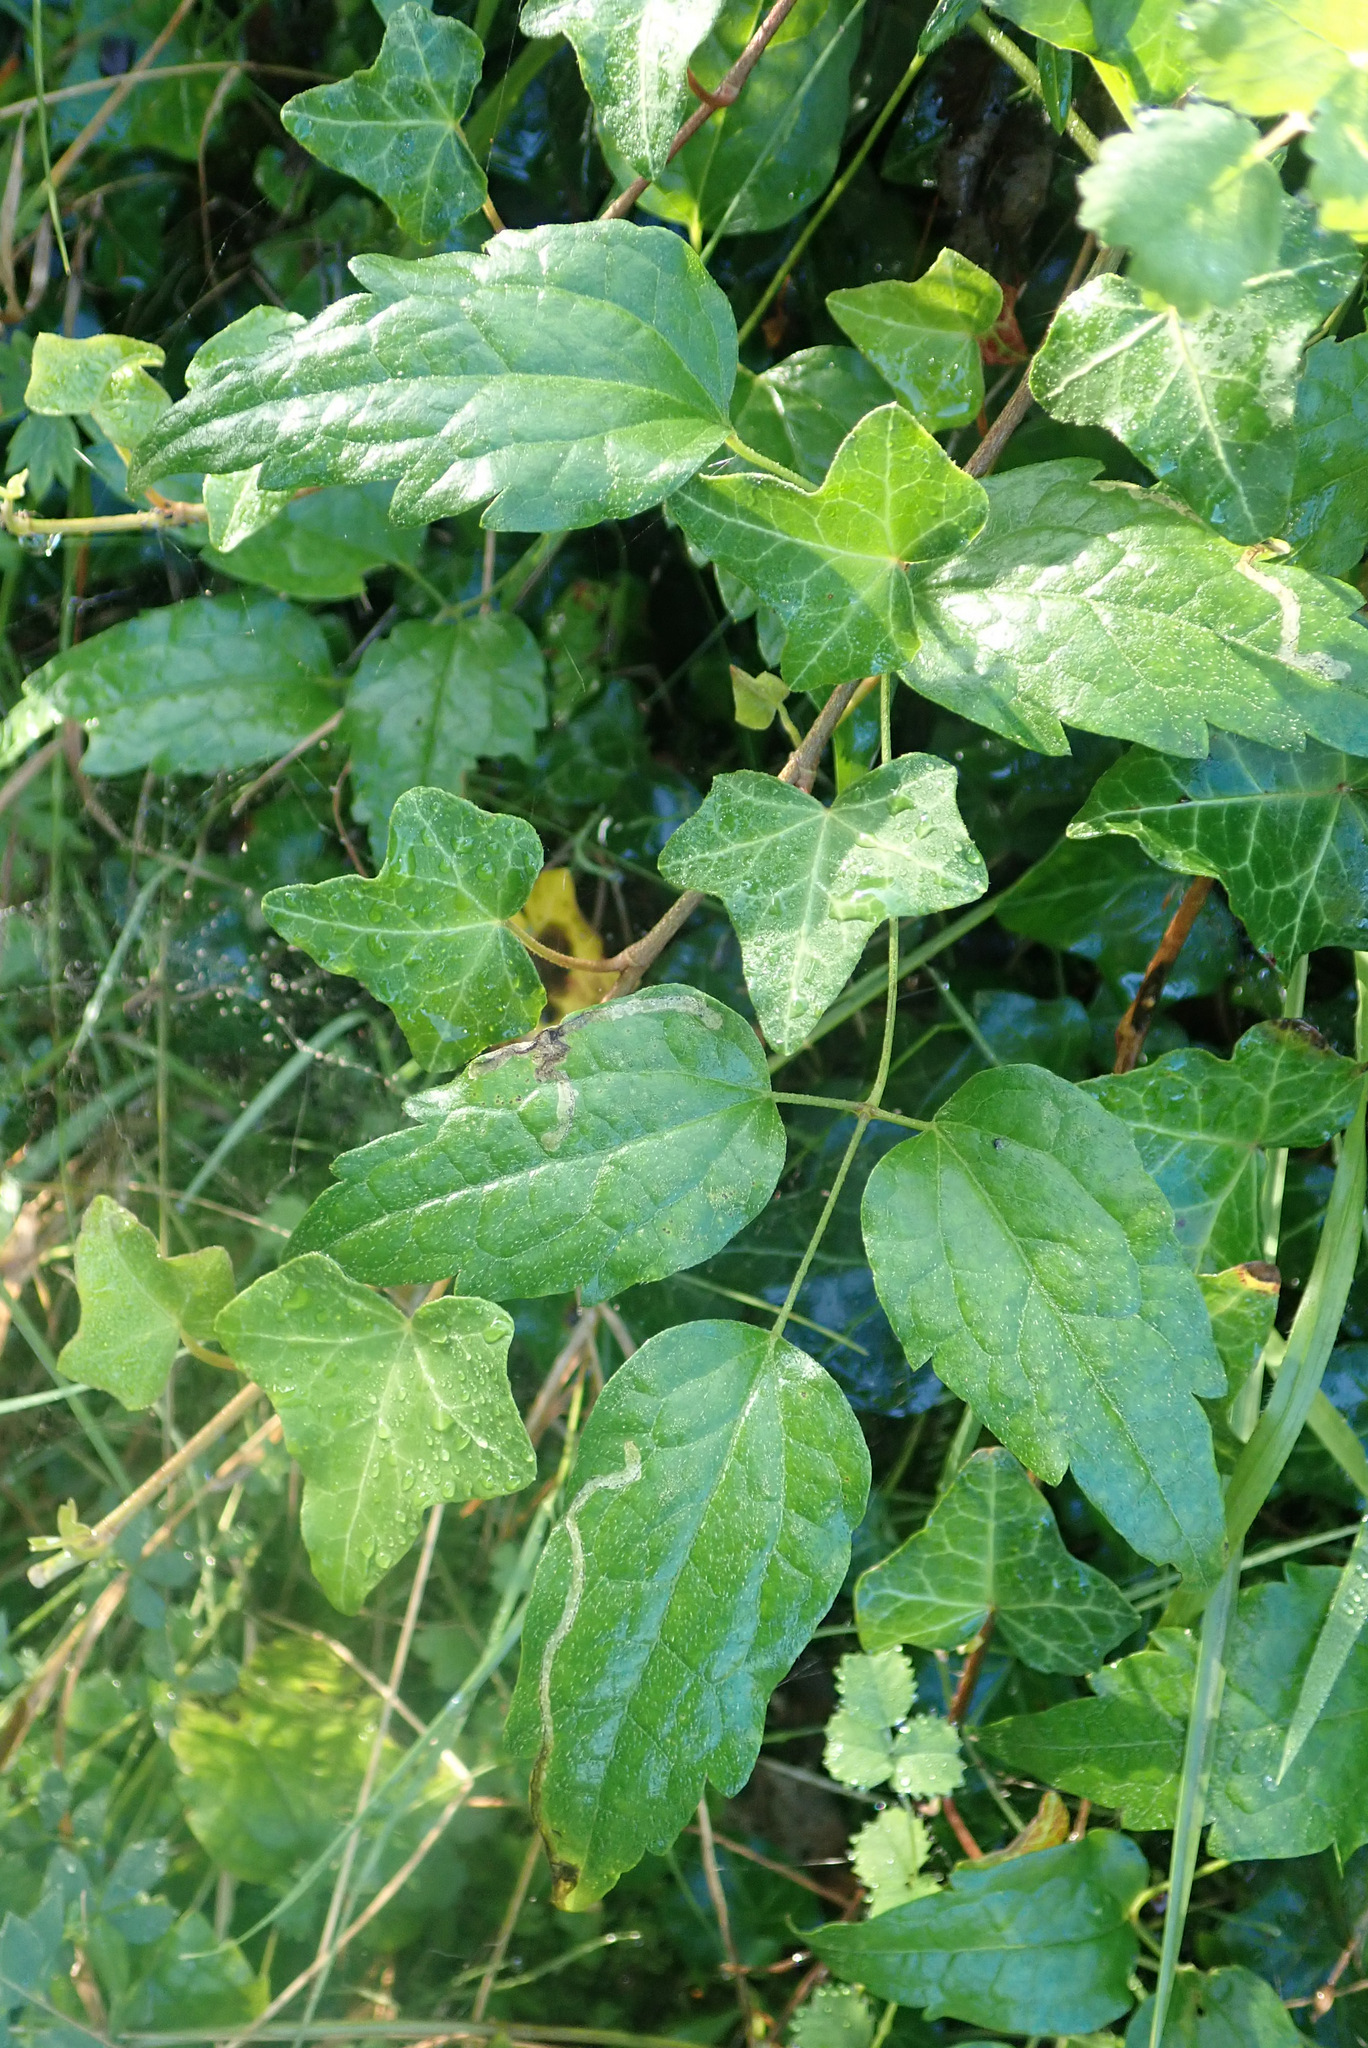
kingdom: Plantae
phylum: Tracheophyta
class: Magnoliopsida
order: Ranunculales
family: Ranunculaceae
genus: Clematis
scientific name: Clematis vitalba
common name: Evergreen clematis
